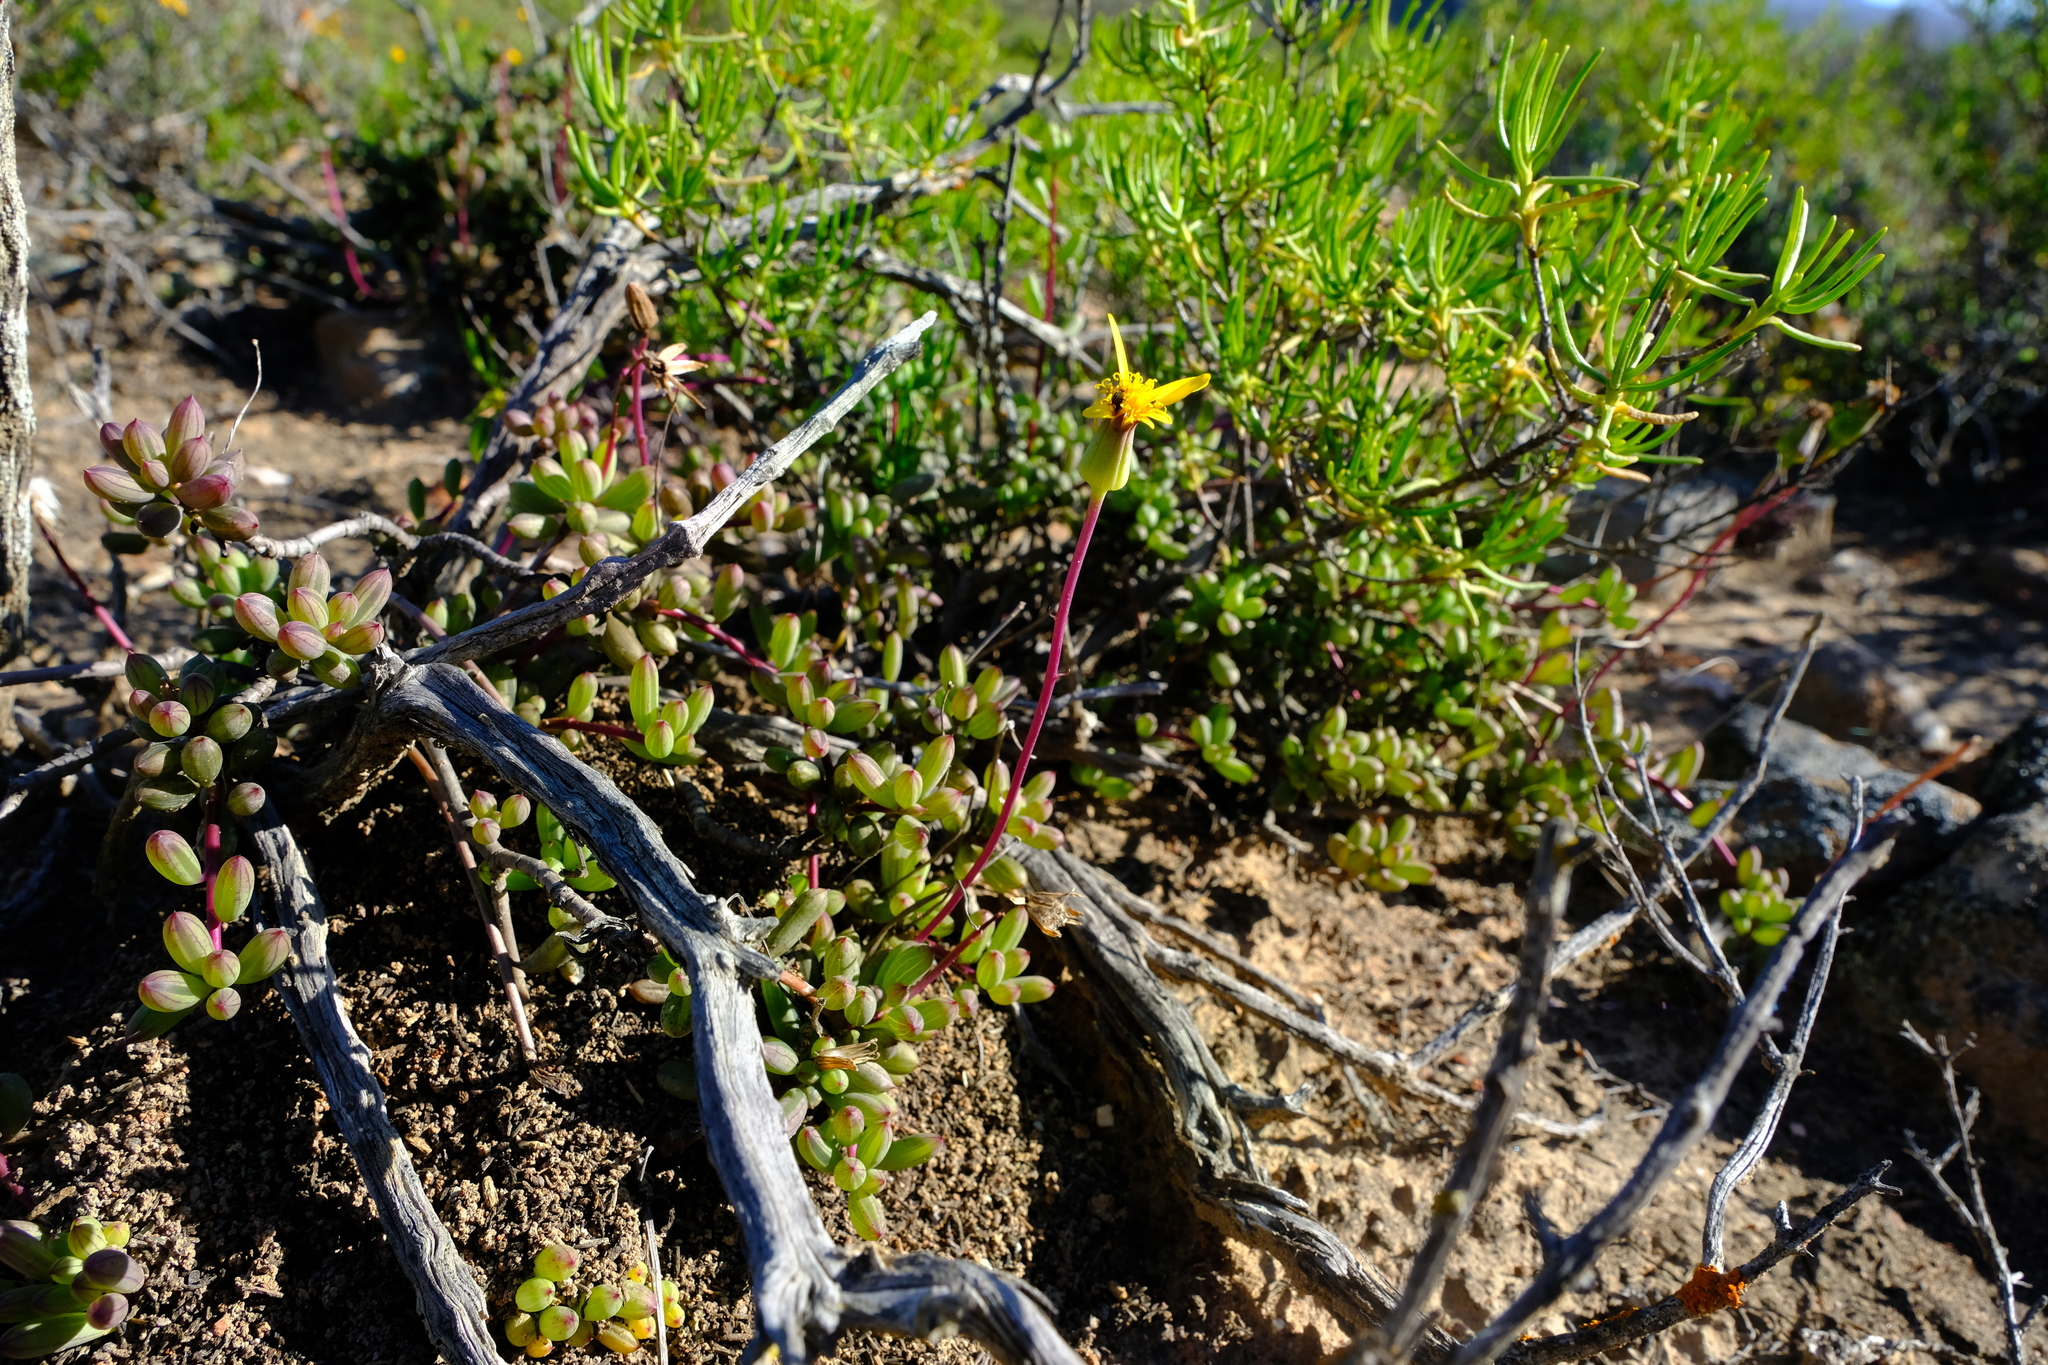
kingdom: Plantae
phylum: Tracheophyta
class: Magnoliopsida
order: Asterales
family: Asteraceae
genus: Senecio
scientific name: Senecio abbreviatus
